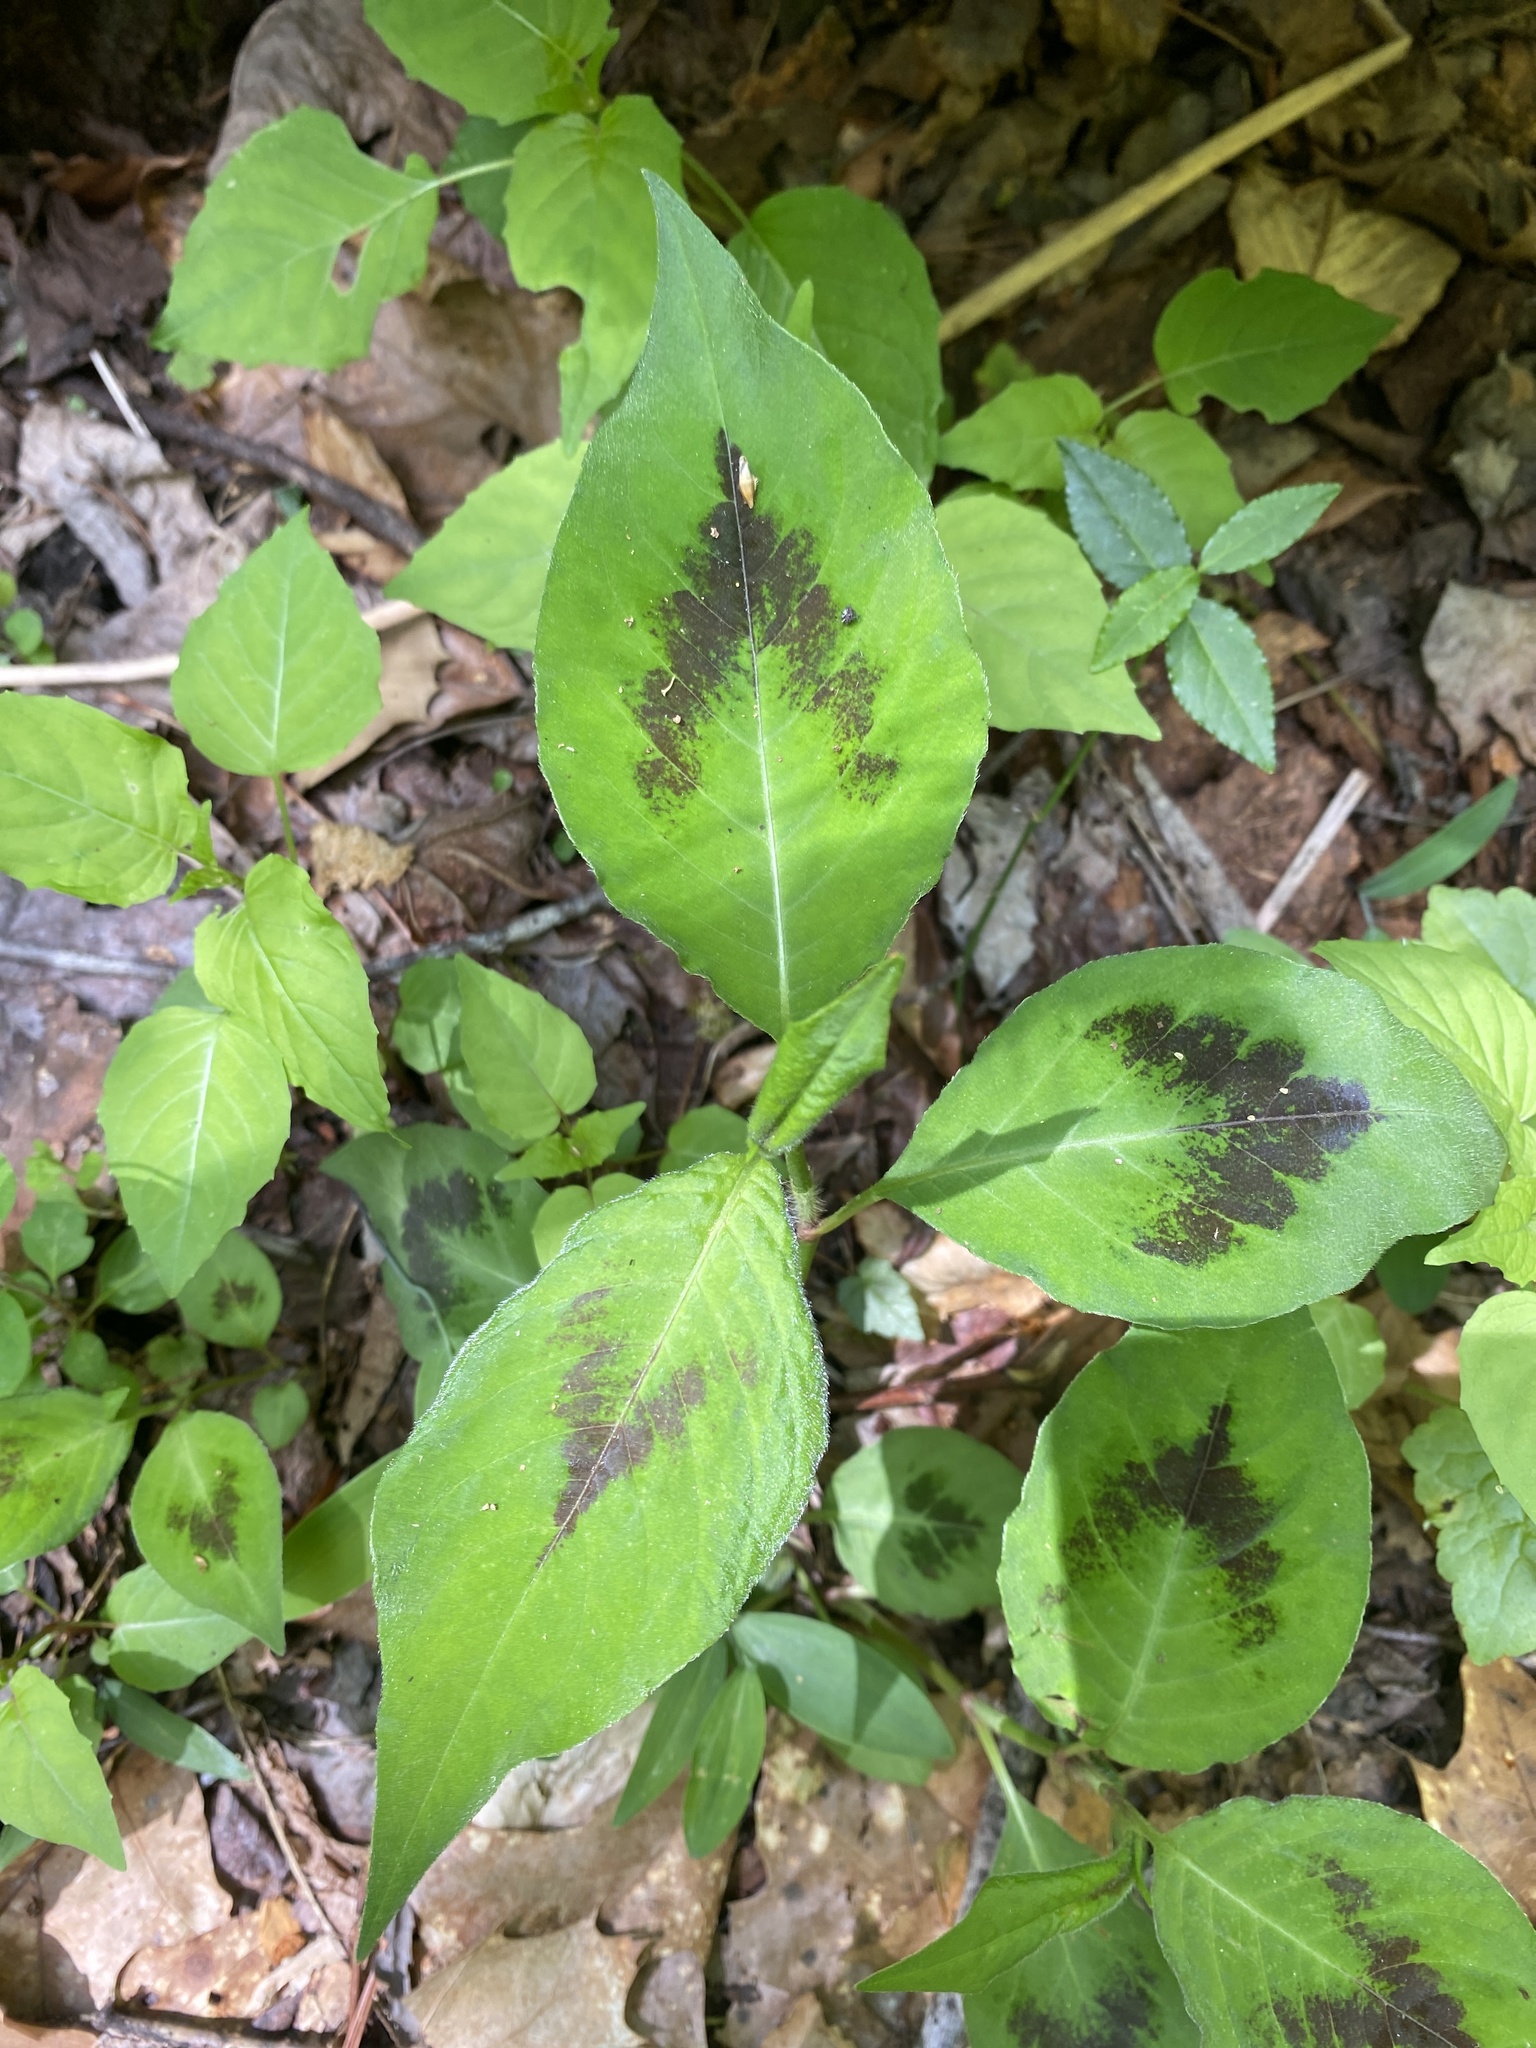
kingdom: Plantae
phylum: Tracheophyta
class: Magnoliopsida
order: Caryophyllales
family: Polygonaceae
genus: Persicaria
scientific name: Persicaria virginiana
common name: Jumpseed
